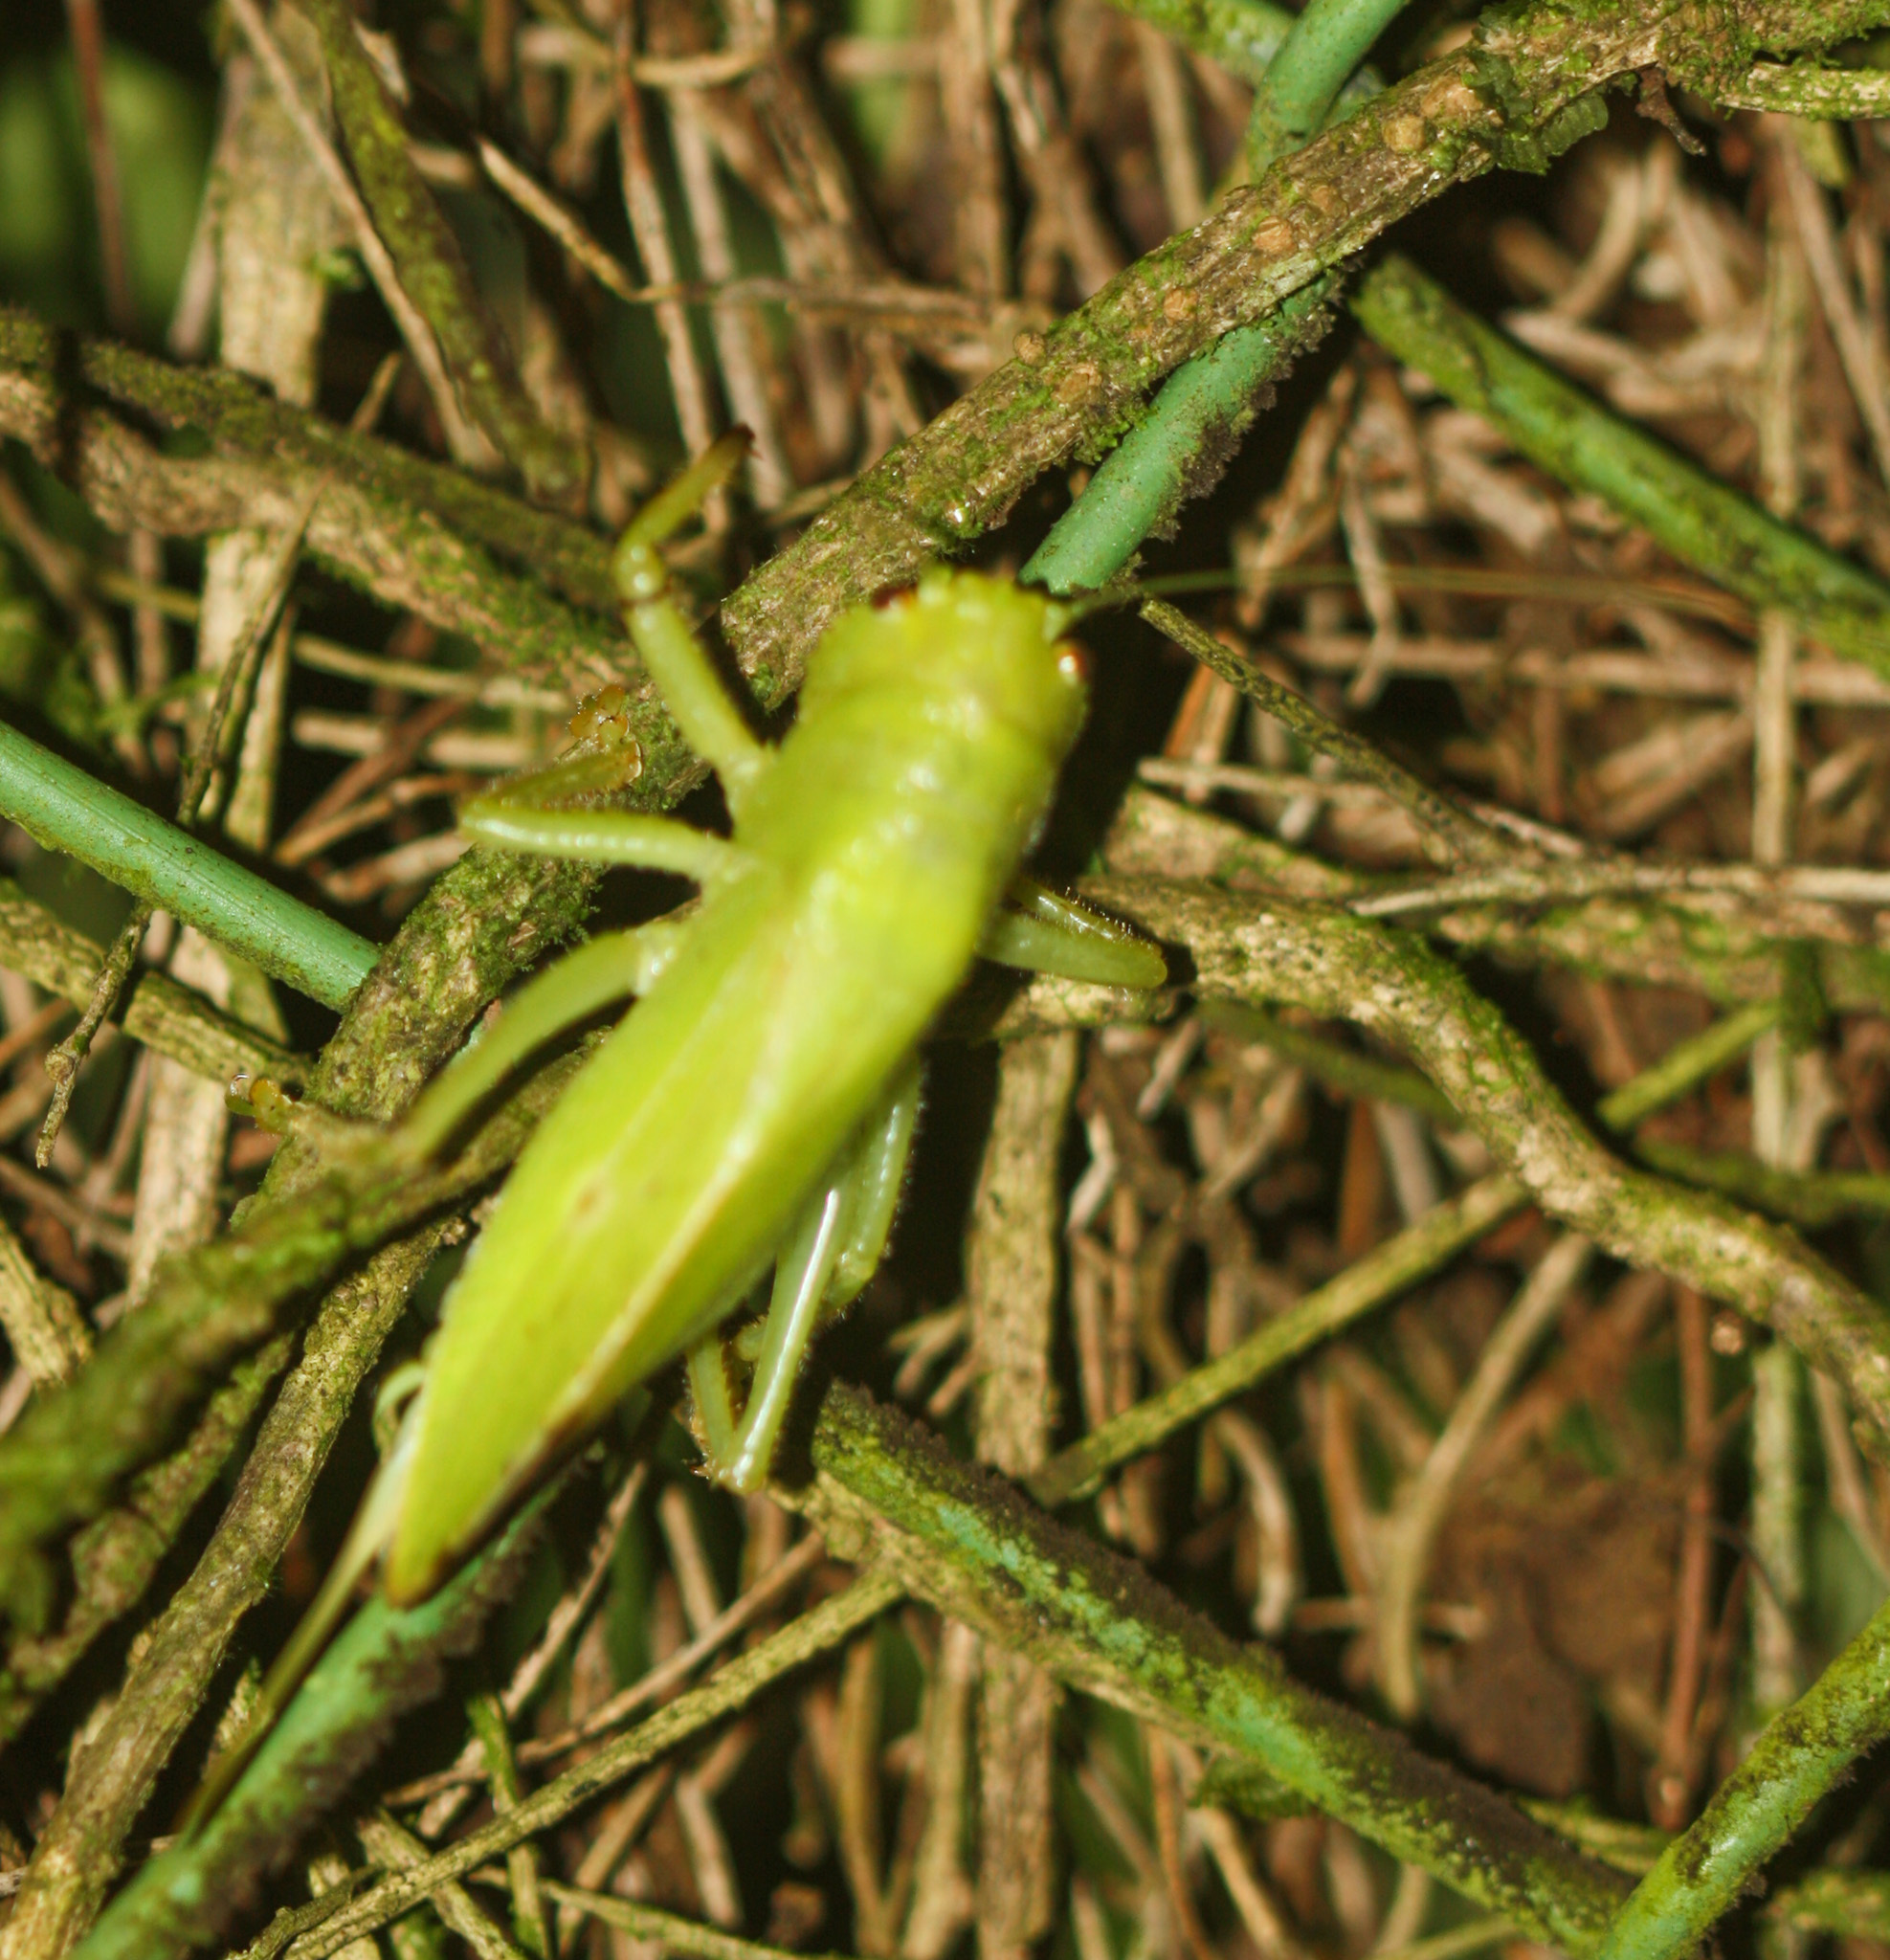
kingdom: Animalia
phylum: Arthropoda
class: Insecta
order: Orthoptera
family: Tettigoniidae
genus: Lirometopum
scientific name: Lirometopum coronatum
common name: Pitbull katydid
